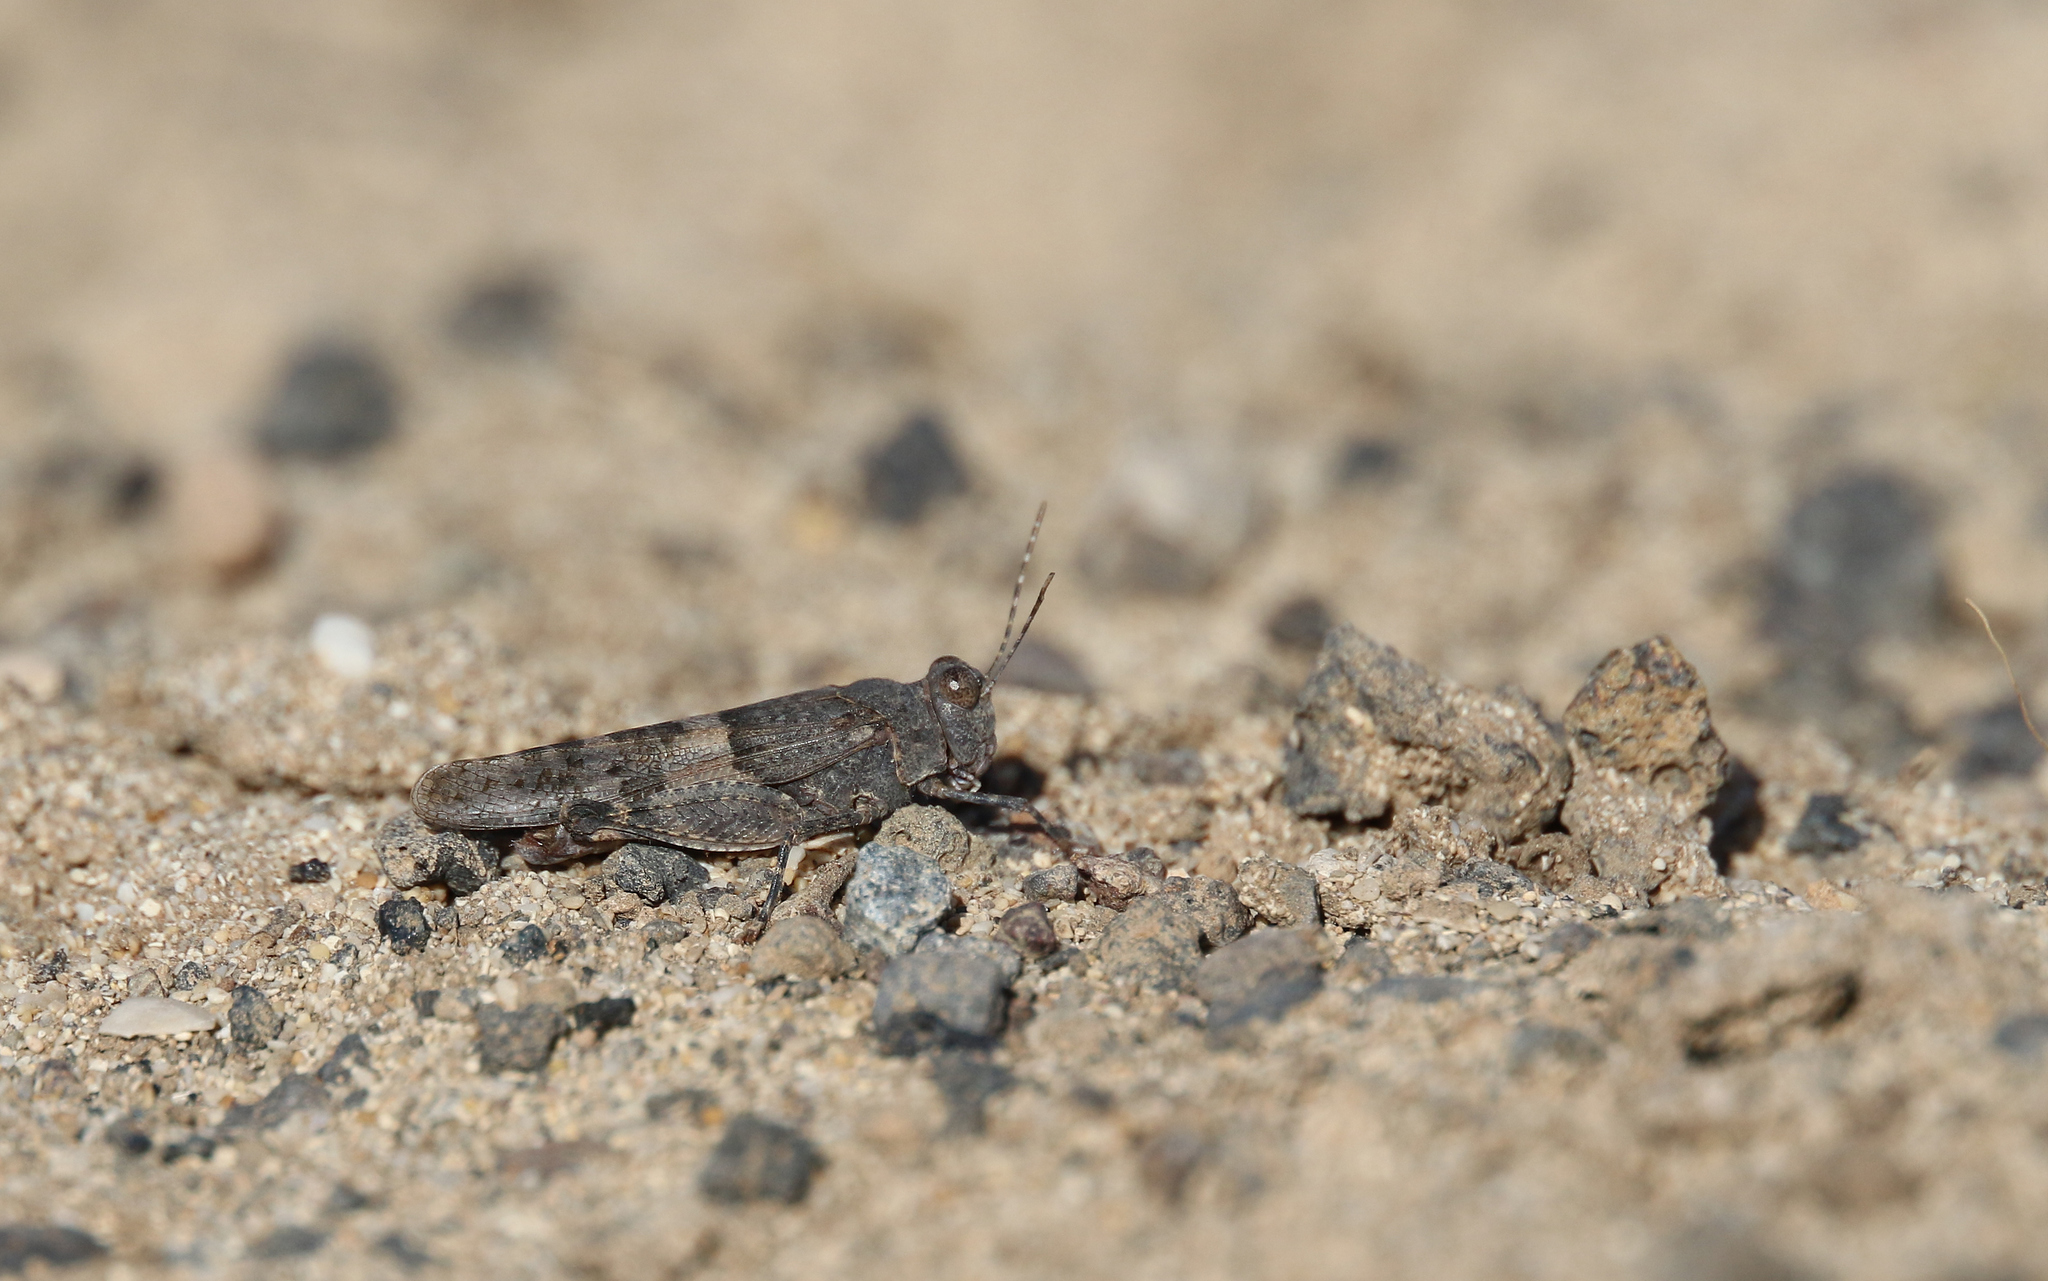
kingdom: Animalia
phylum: Arthropoda
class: Insecta
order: Orthoptera
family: Acrididae
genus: Sphingonotus
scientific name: Sphingonotus pachecoi
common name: Lanzarote sand grasshopper
